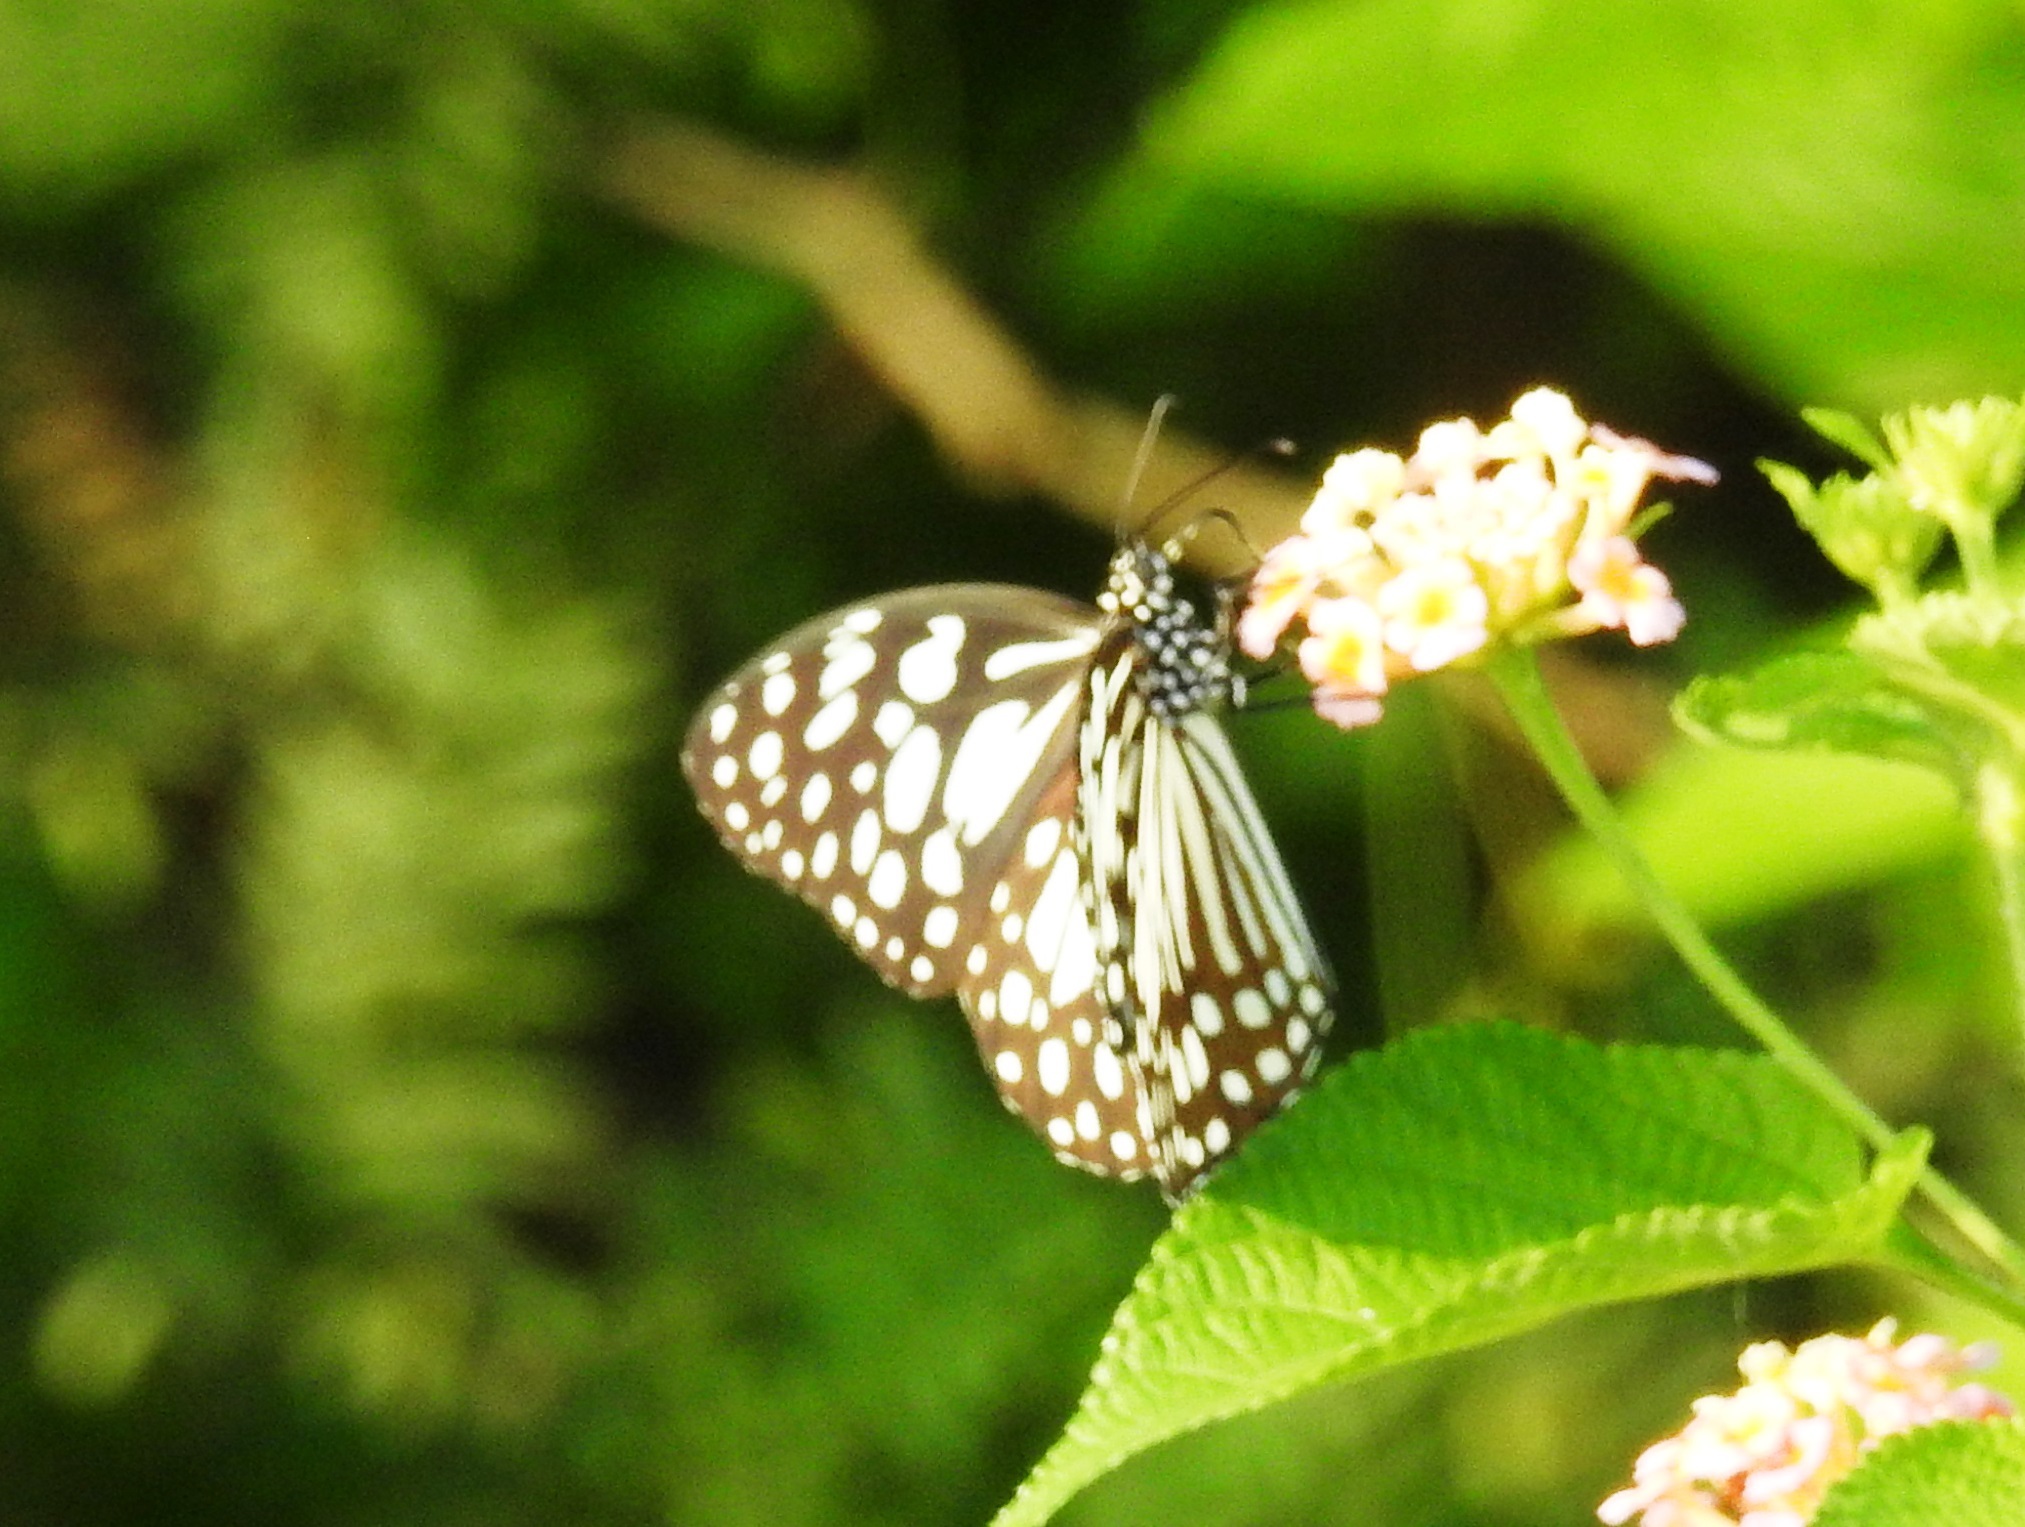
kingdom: Animalia
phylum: Arthropoda
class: Insecta
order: Lepidoptera
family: Nymphalidae
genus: Tirumala
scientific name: Tirumala limniace
